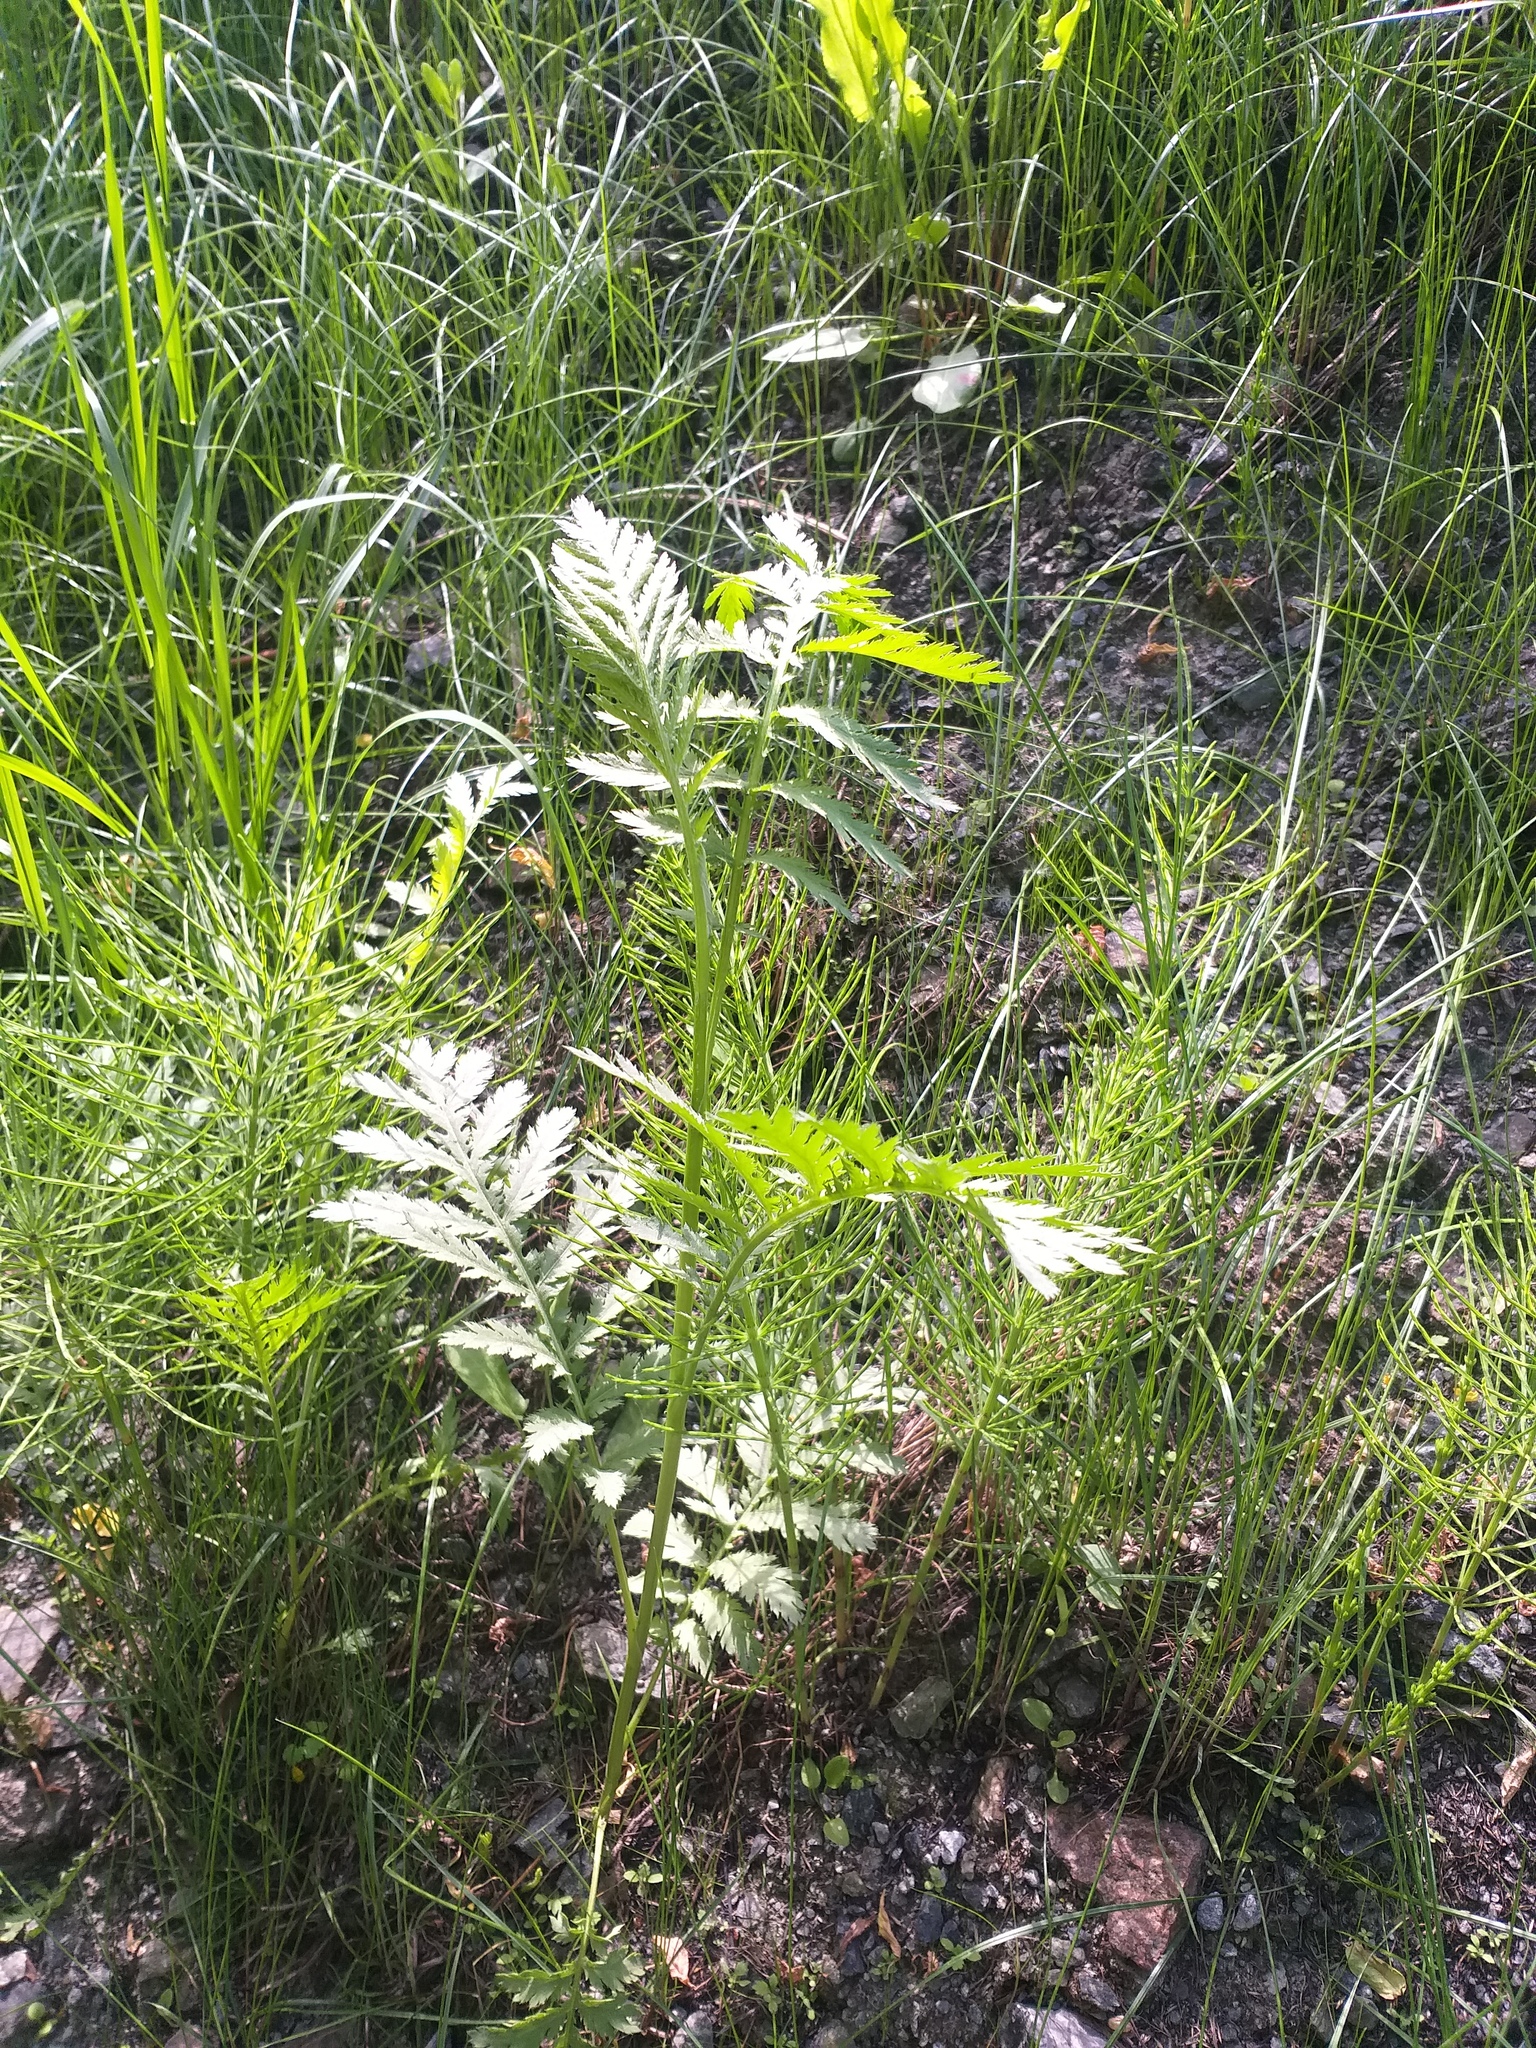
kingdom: Plantae
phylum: Tracheophyta
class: Magnoliopsida
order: Asterales
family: Asteraceae
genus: Tanacetum
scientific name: Tanacetum vulgare
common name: Common tansy
